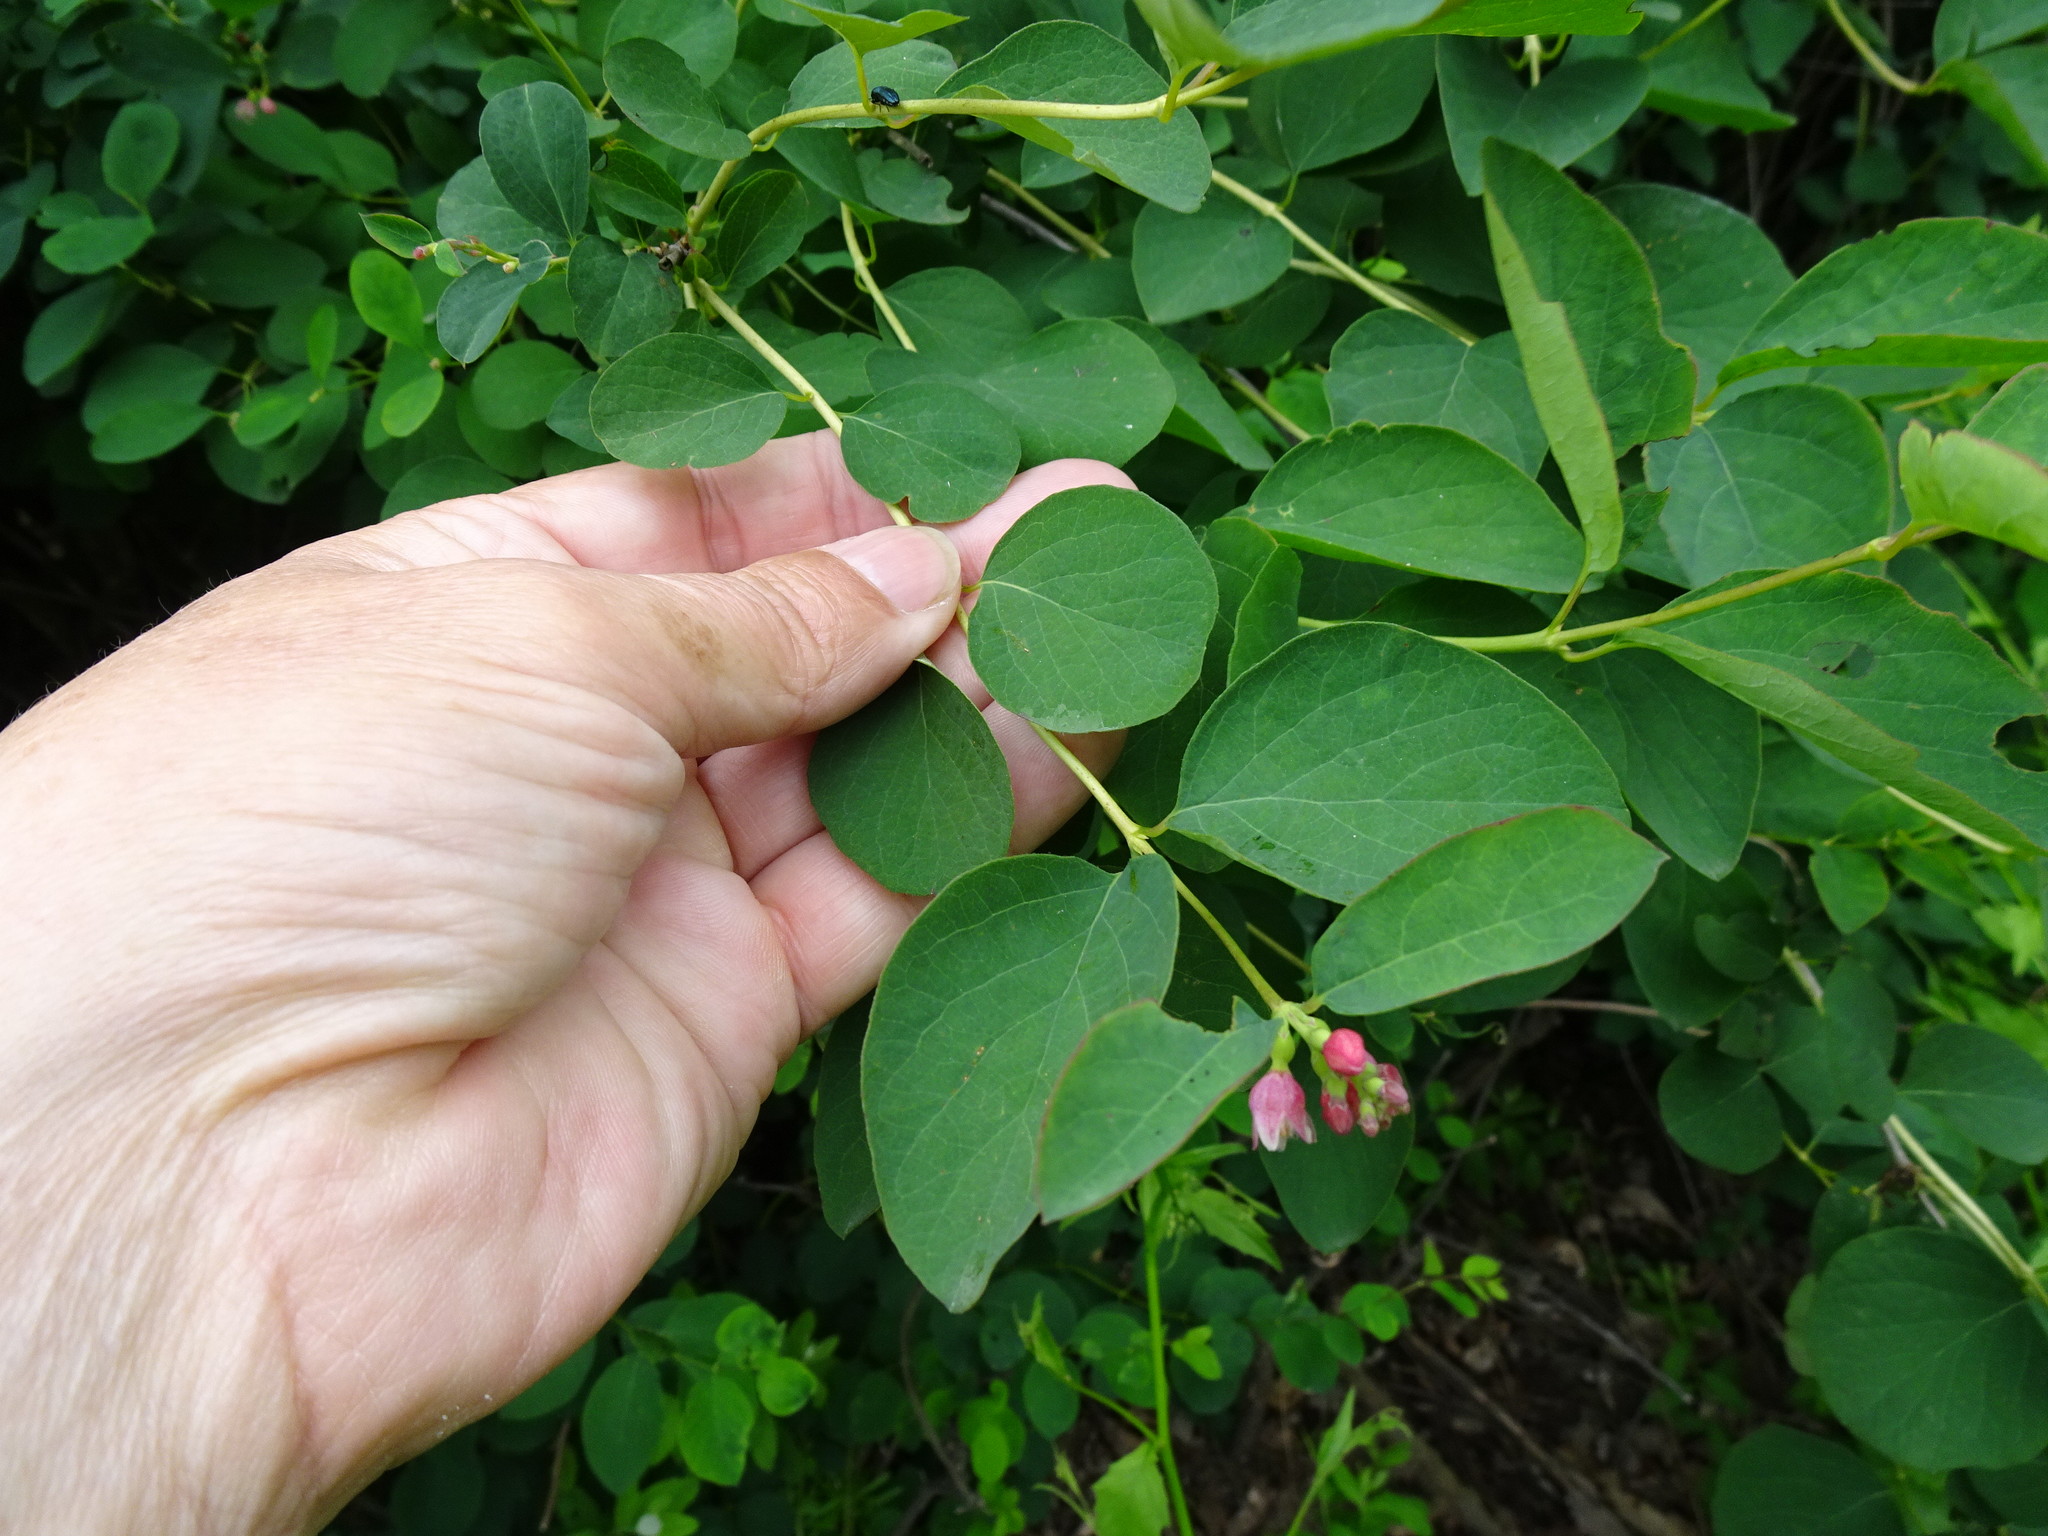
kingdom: Plantae
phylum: Tracheophyta
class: Magnoliopsida
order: Dipsacales
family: Caprifoliaceae
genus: Symphoricarpos
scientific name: Symphoricarpos albus
